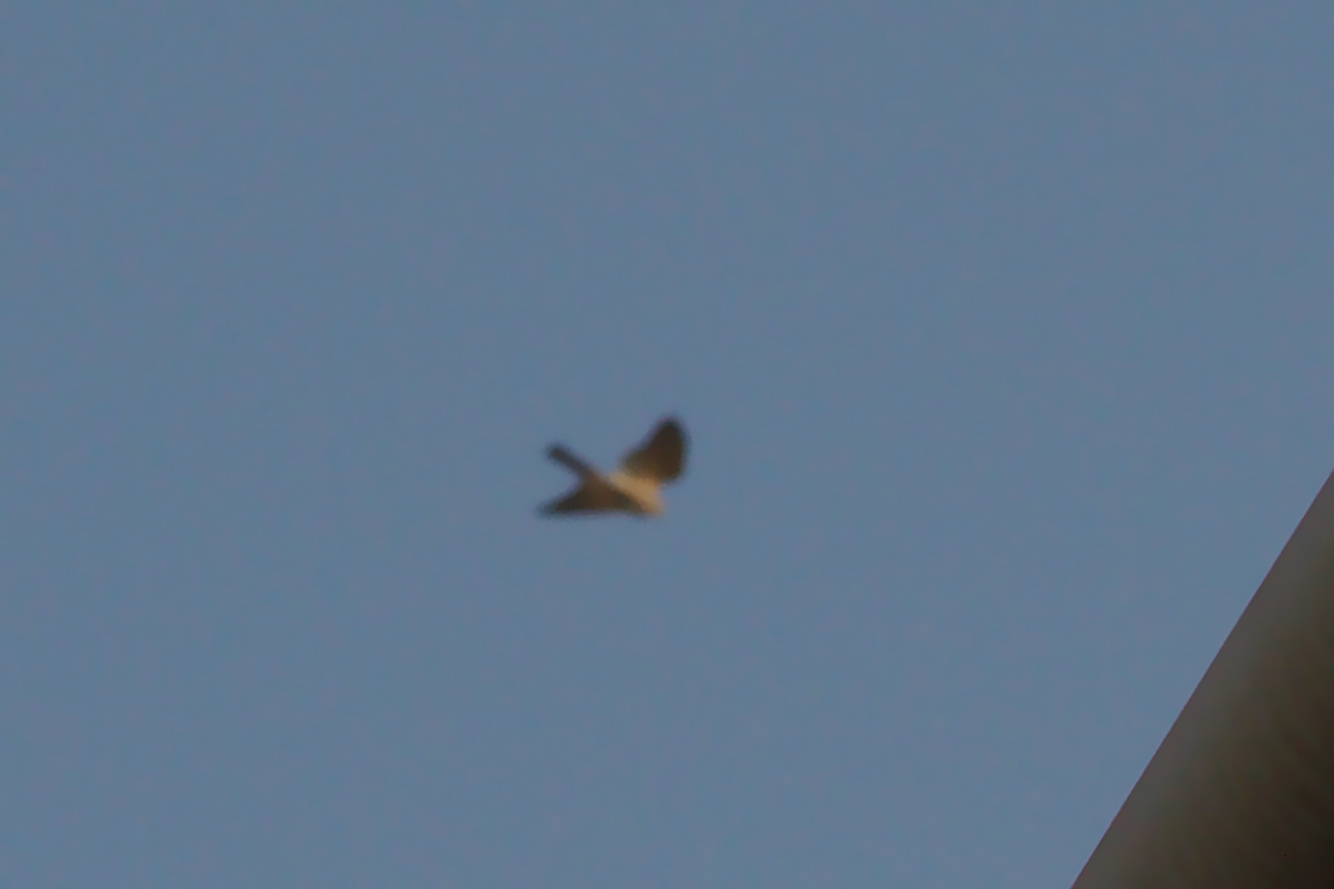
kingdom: Animalia
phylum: Chordata
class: Aves
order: Accipitriformes
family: Accipitridae
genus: Accipiter
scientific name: Accipiter badius
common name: Shikra
